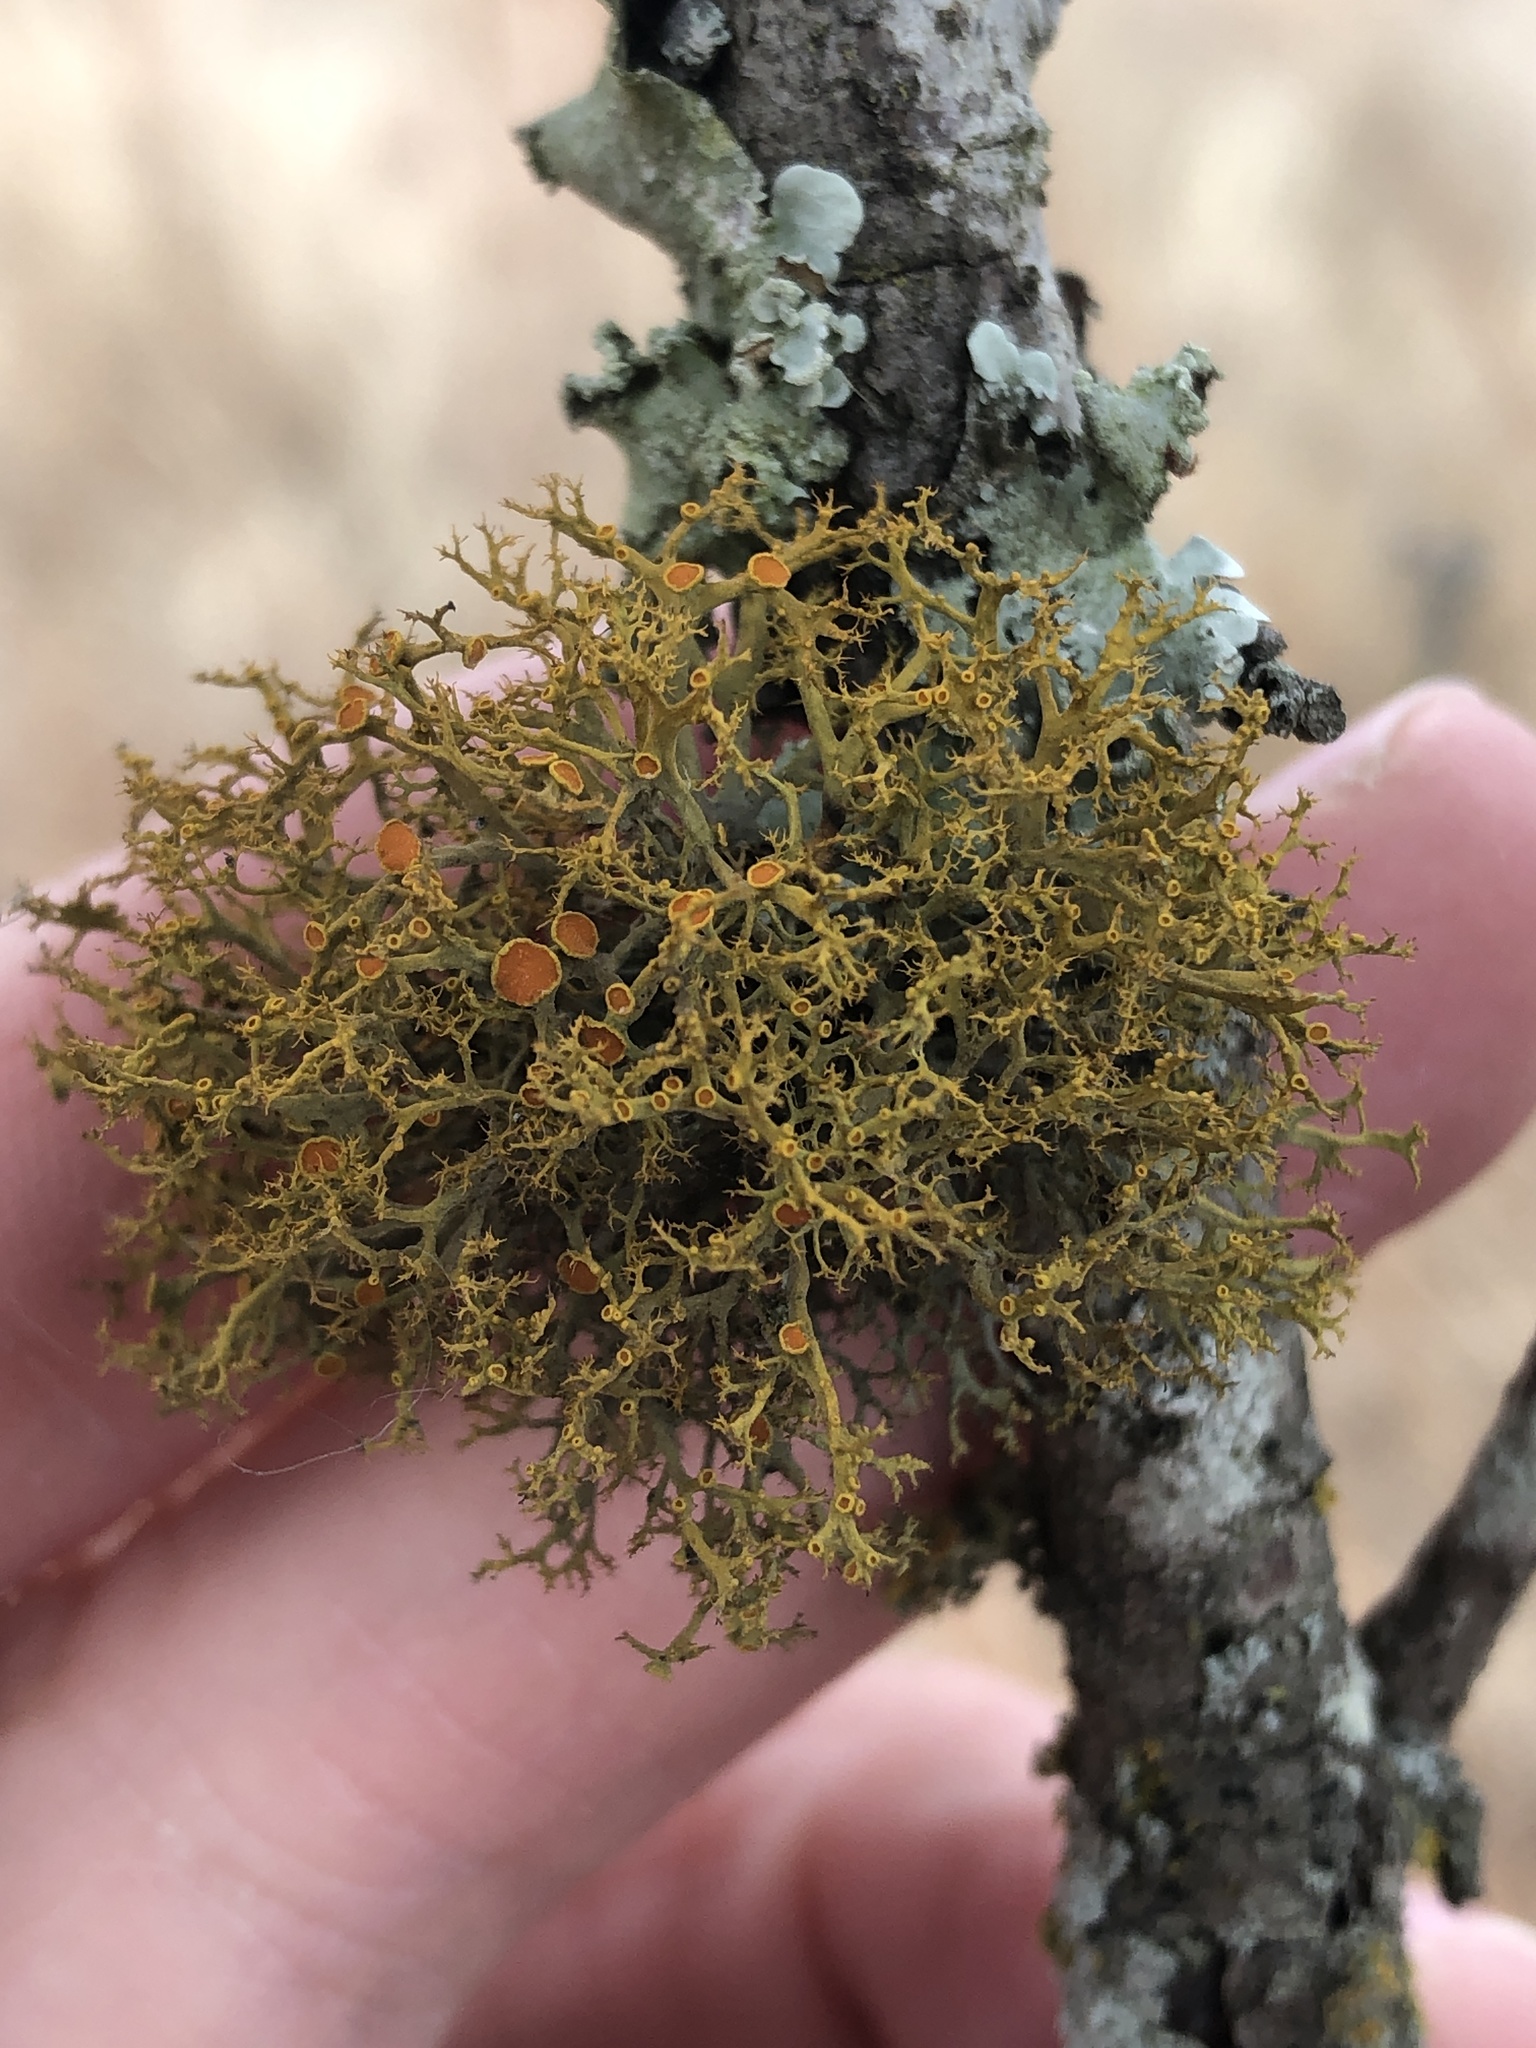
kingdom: Fungi
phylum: Ascomycota
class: Lecanoromycetes
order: Teloschistales
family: Teloschistaceae
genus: Teloschistes
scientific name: Teloschistes exilis
